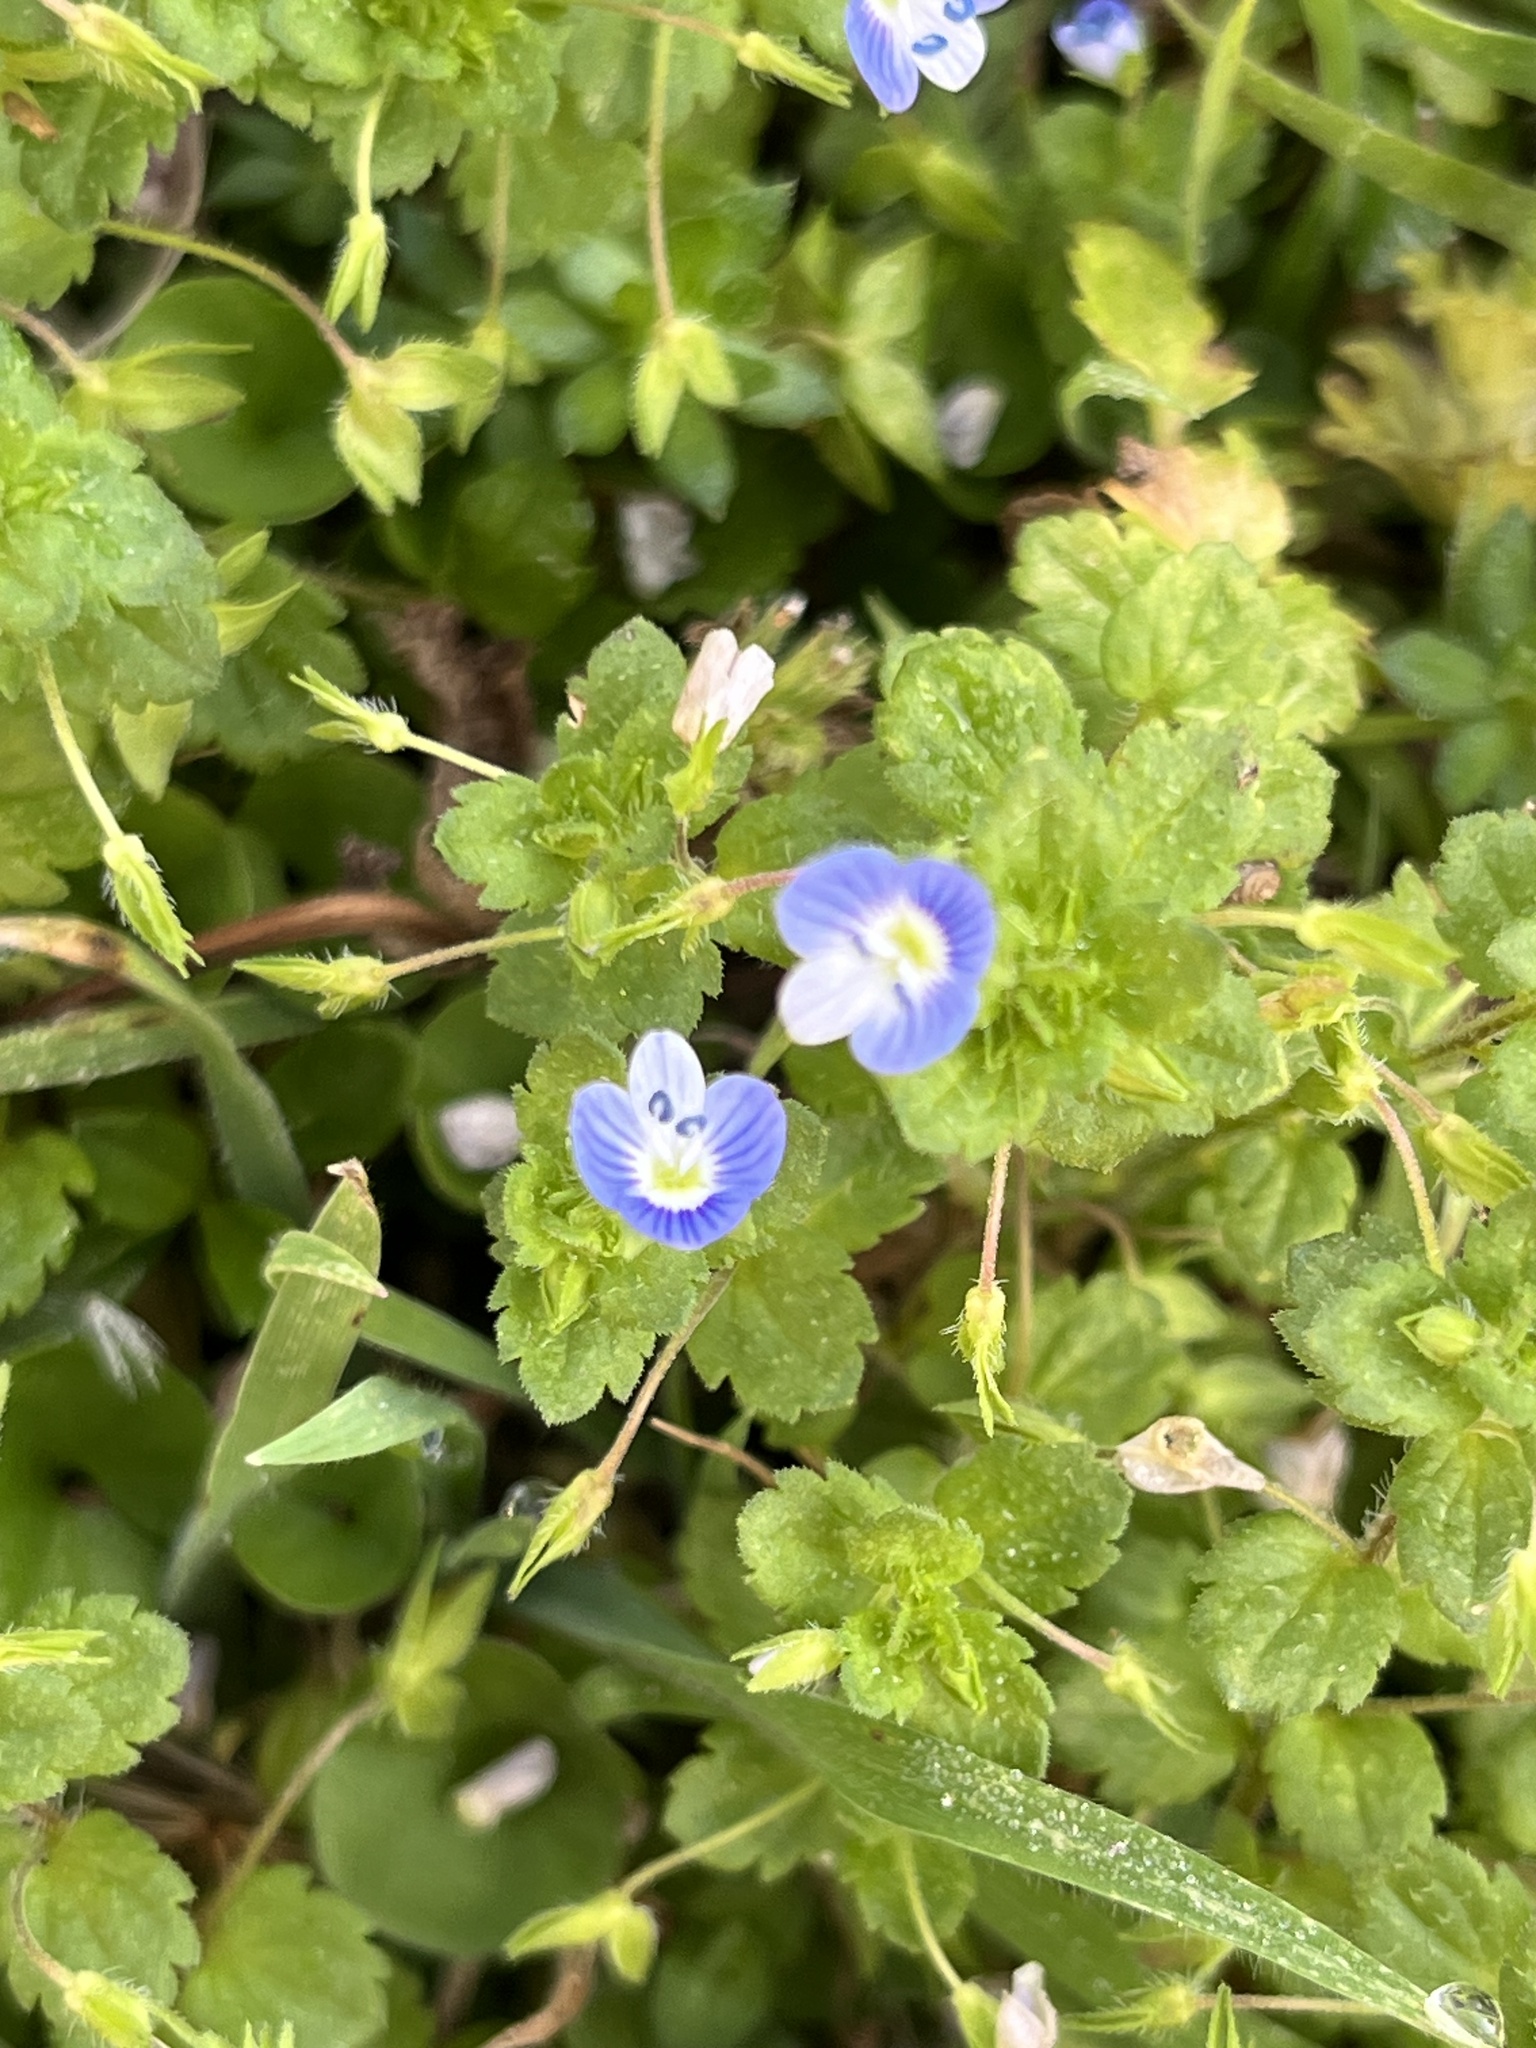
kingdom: Plantae
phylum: Tracheophyta
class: Magnoliopsida
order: Lamiales
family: Plantaginaceae
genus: Veronica
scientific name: Veronica persica
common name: Common field-speedwell
